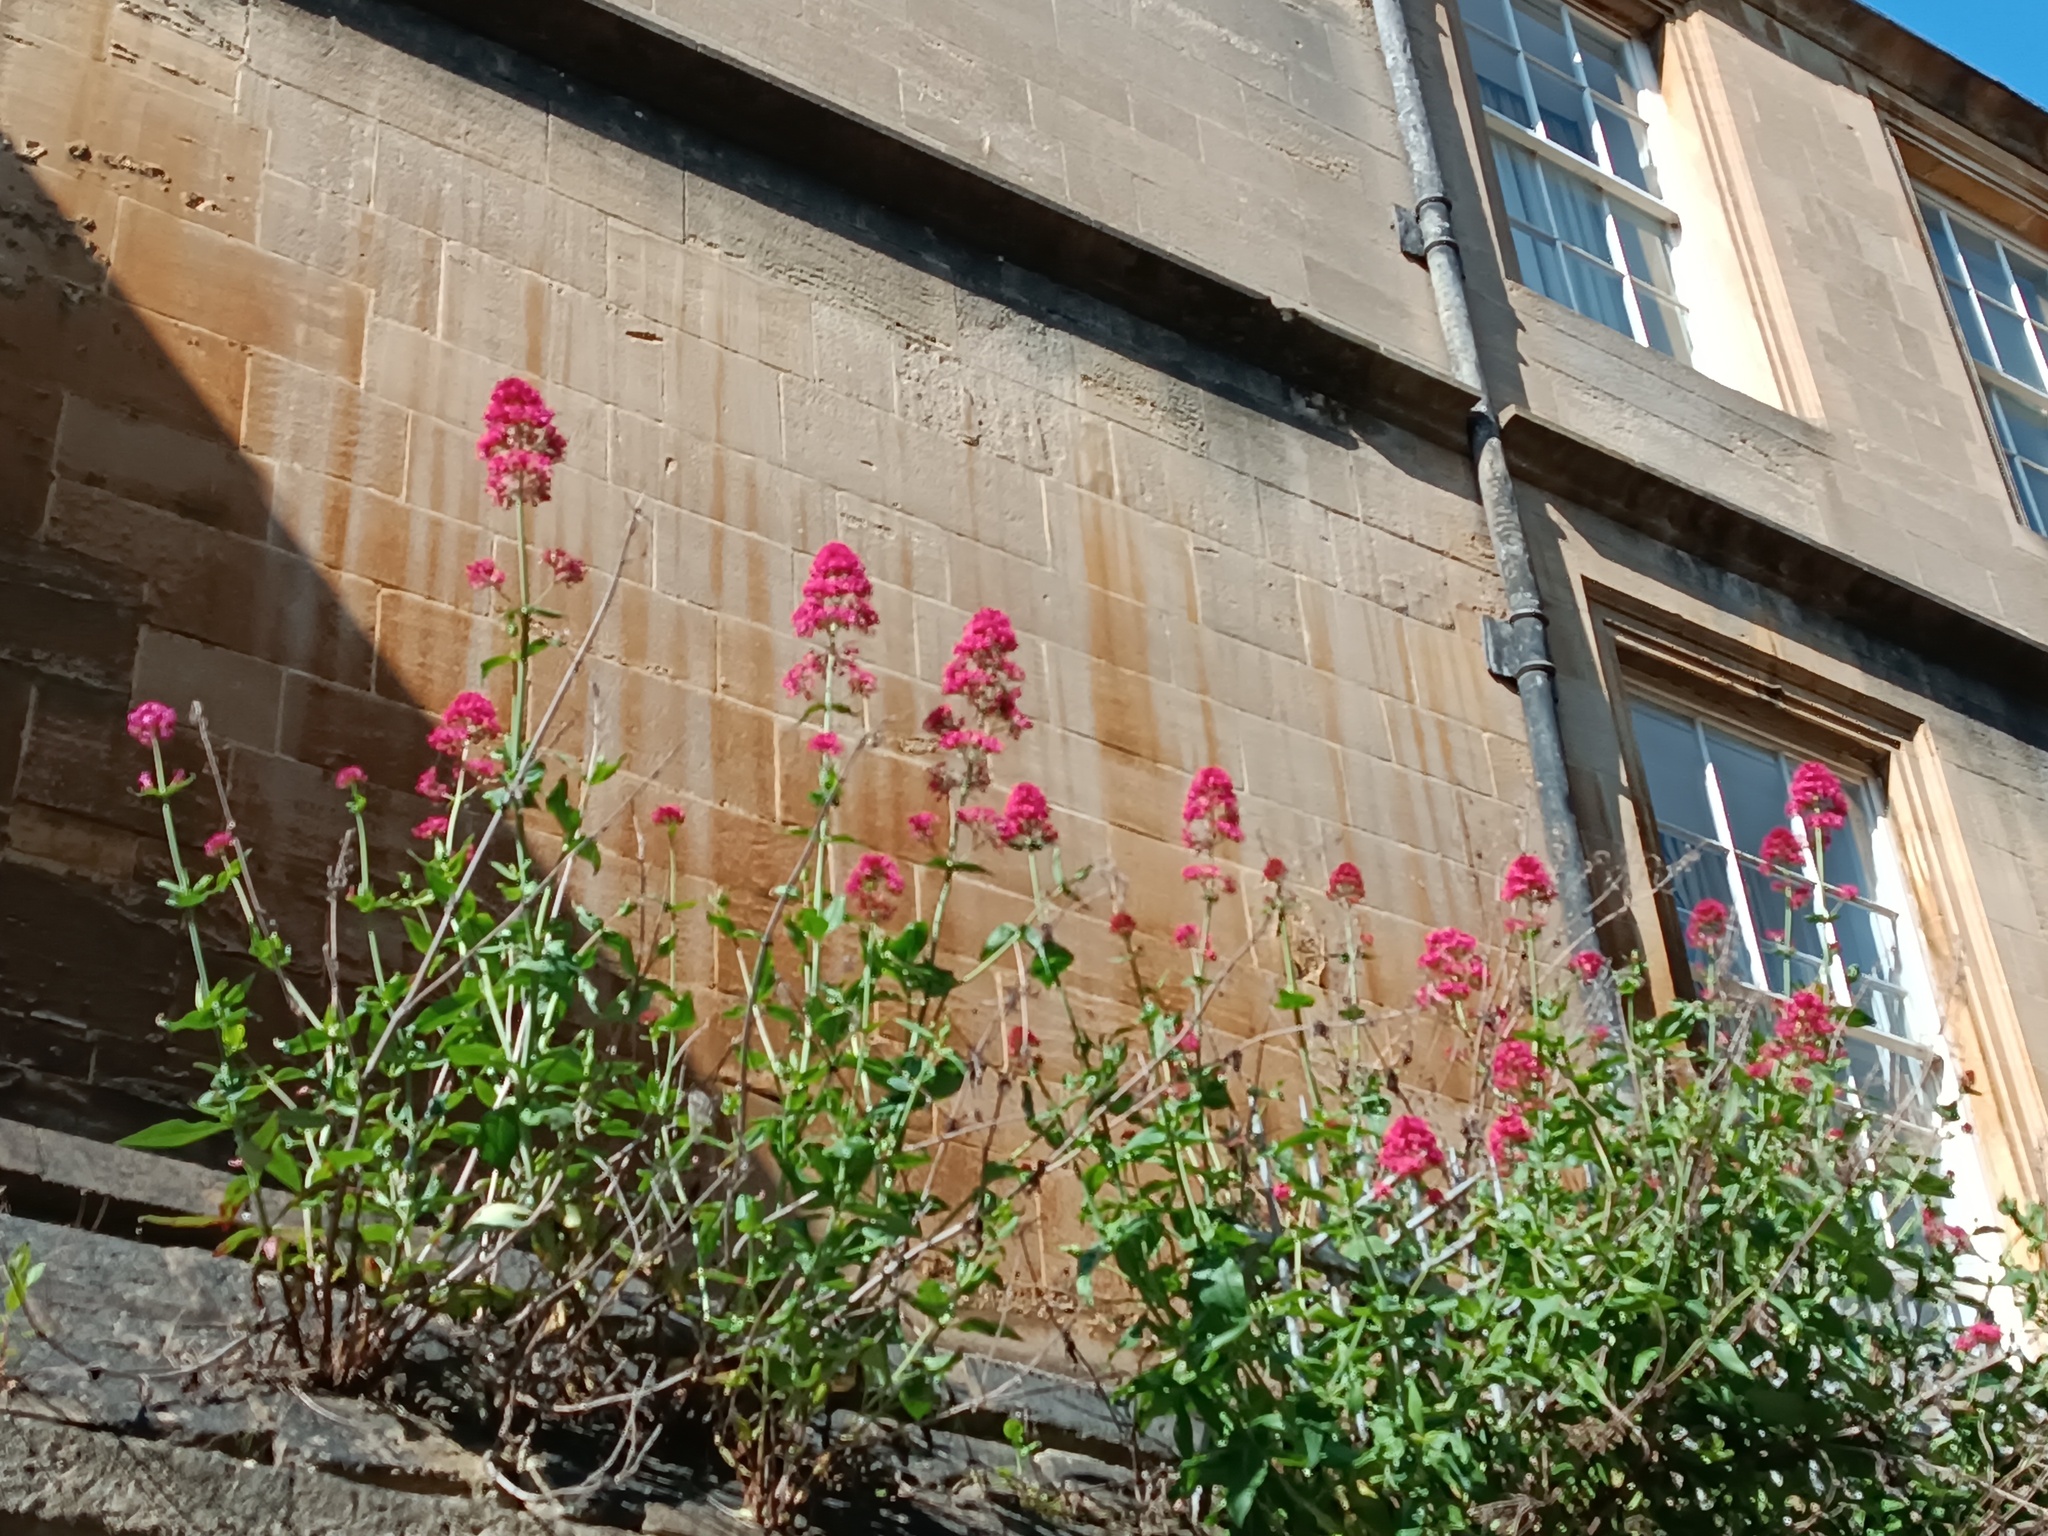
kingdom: Plantae
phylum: Tracheophyta
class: Magnoliopsida
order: Dipsacales
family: Caprifoliaceae
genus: Centranthus
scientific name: Centranthus ruber
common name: Red valerian
